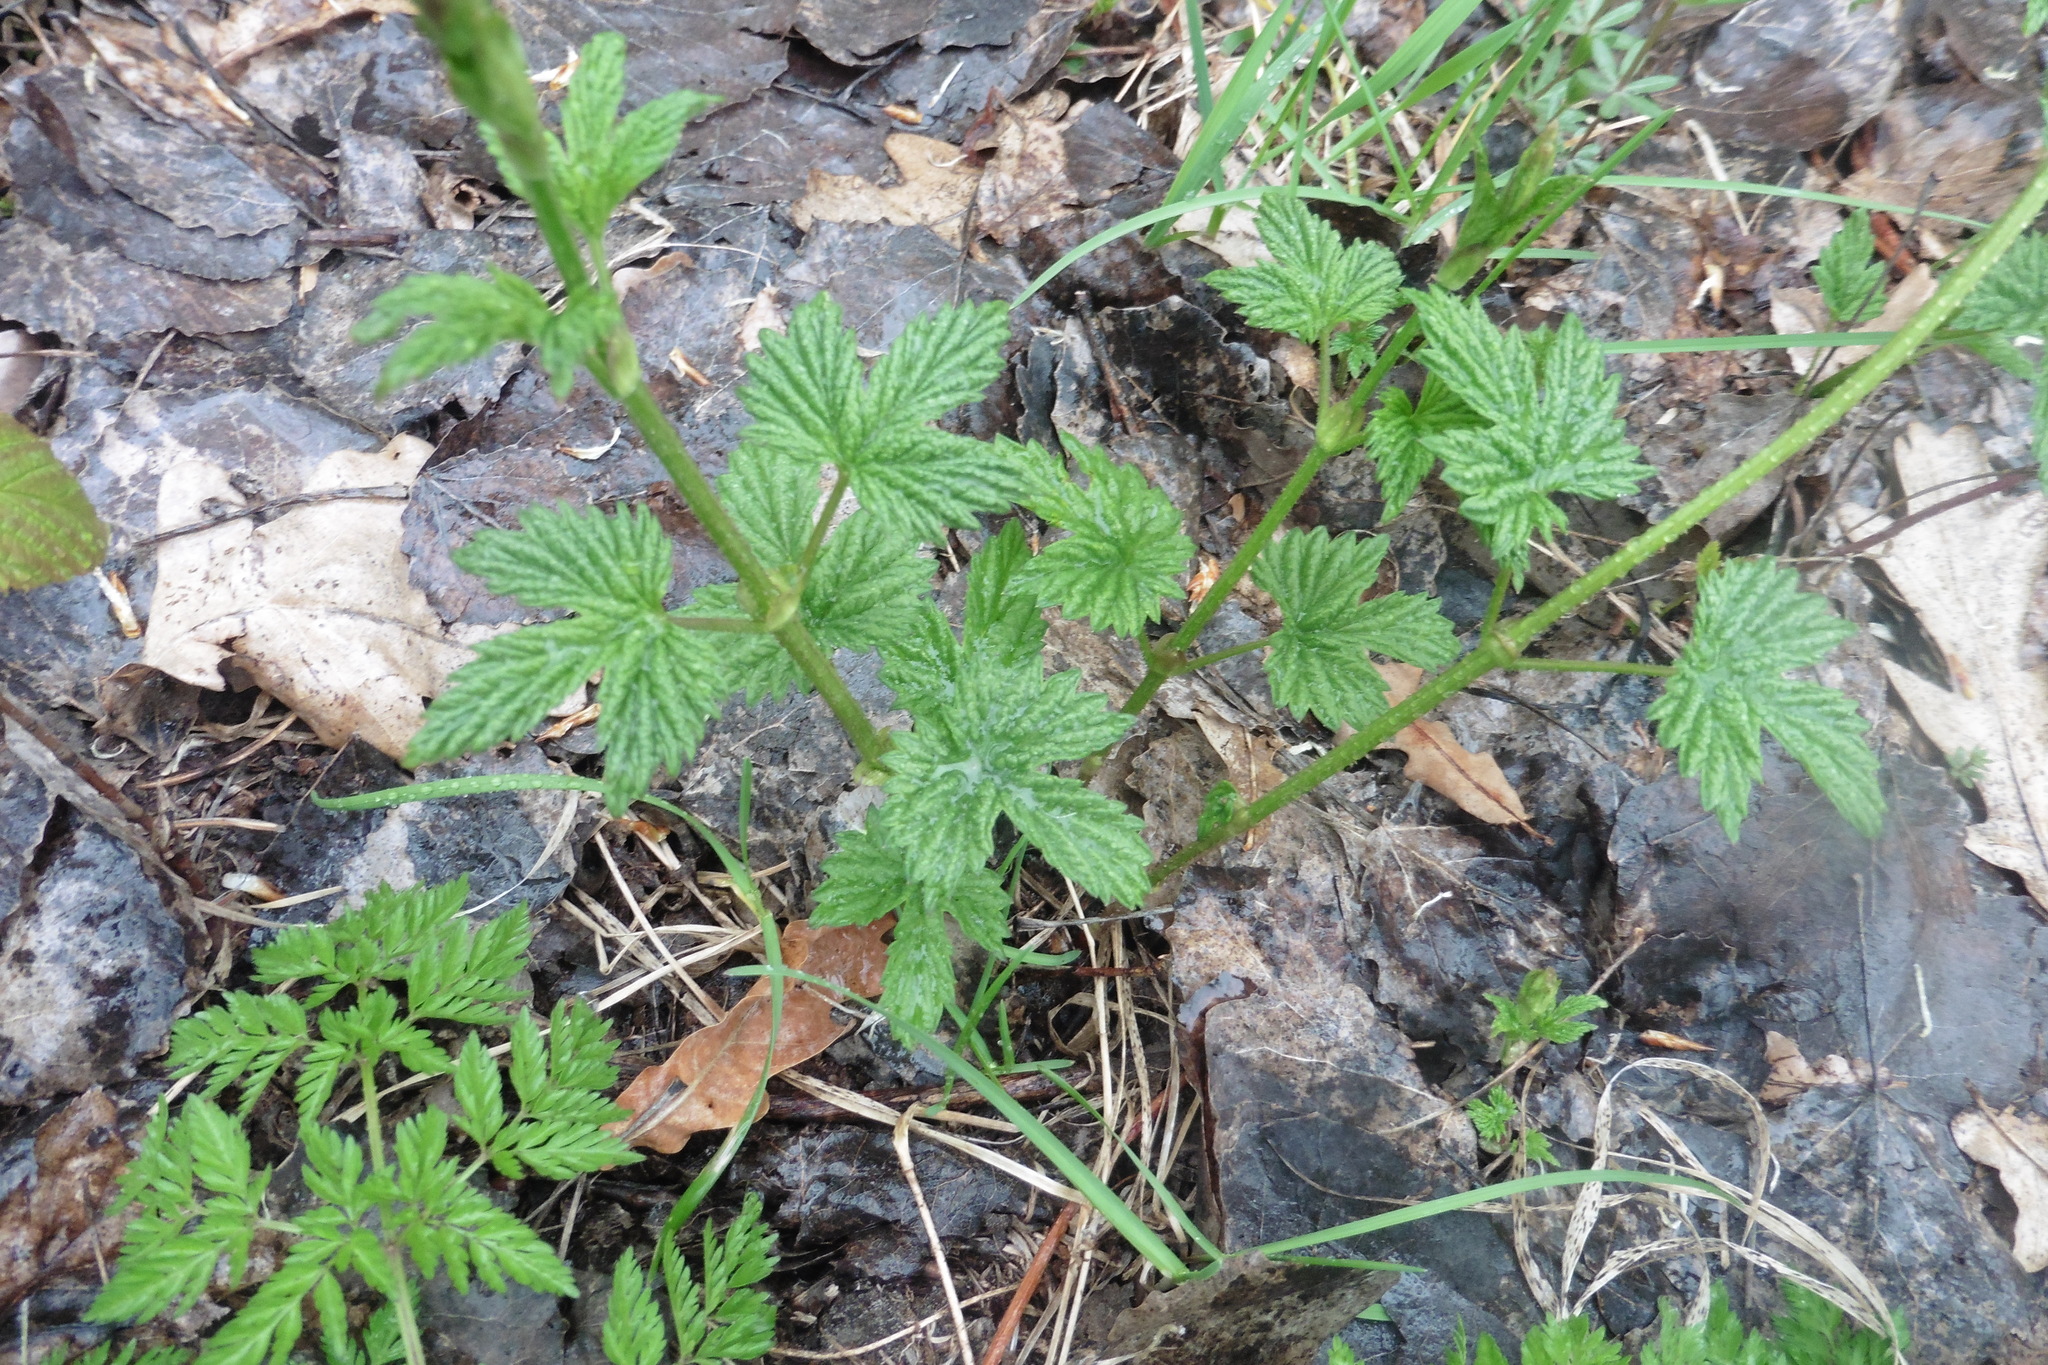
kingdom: Plantae
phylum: Tracheophyta
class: Magnoliopsida
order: Rosales
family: Cannabaceae
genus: Humulus
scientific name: Humulus lupulus
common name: Hop
